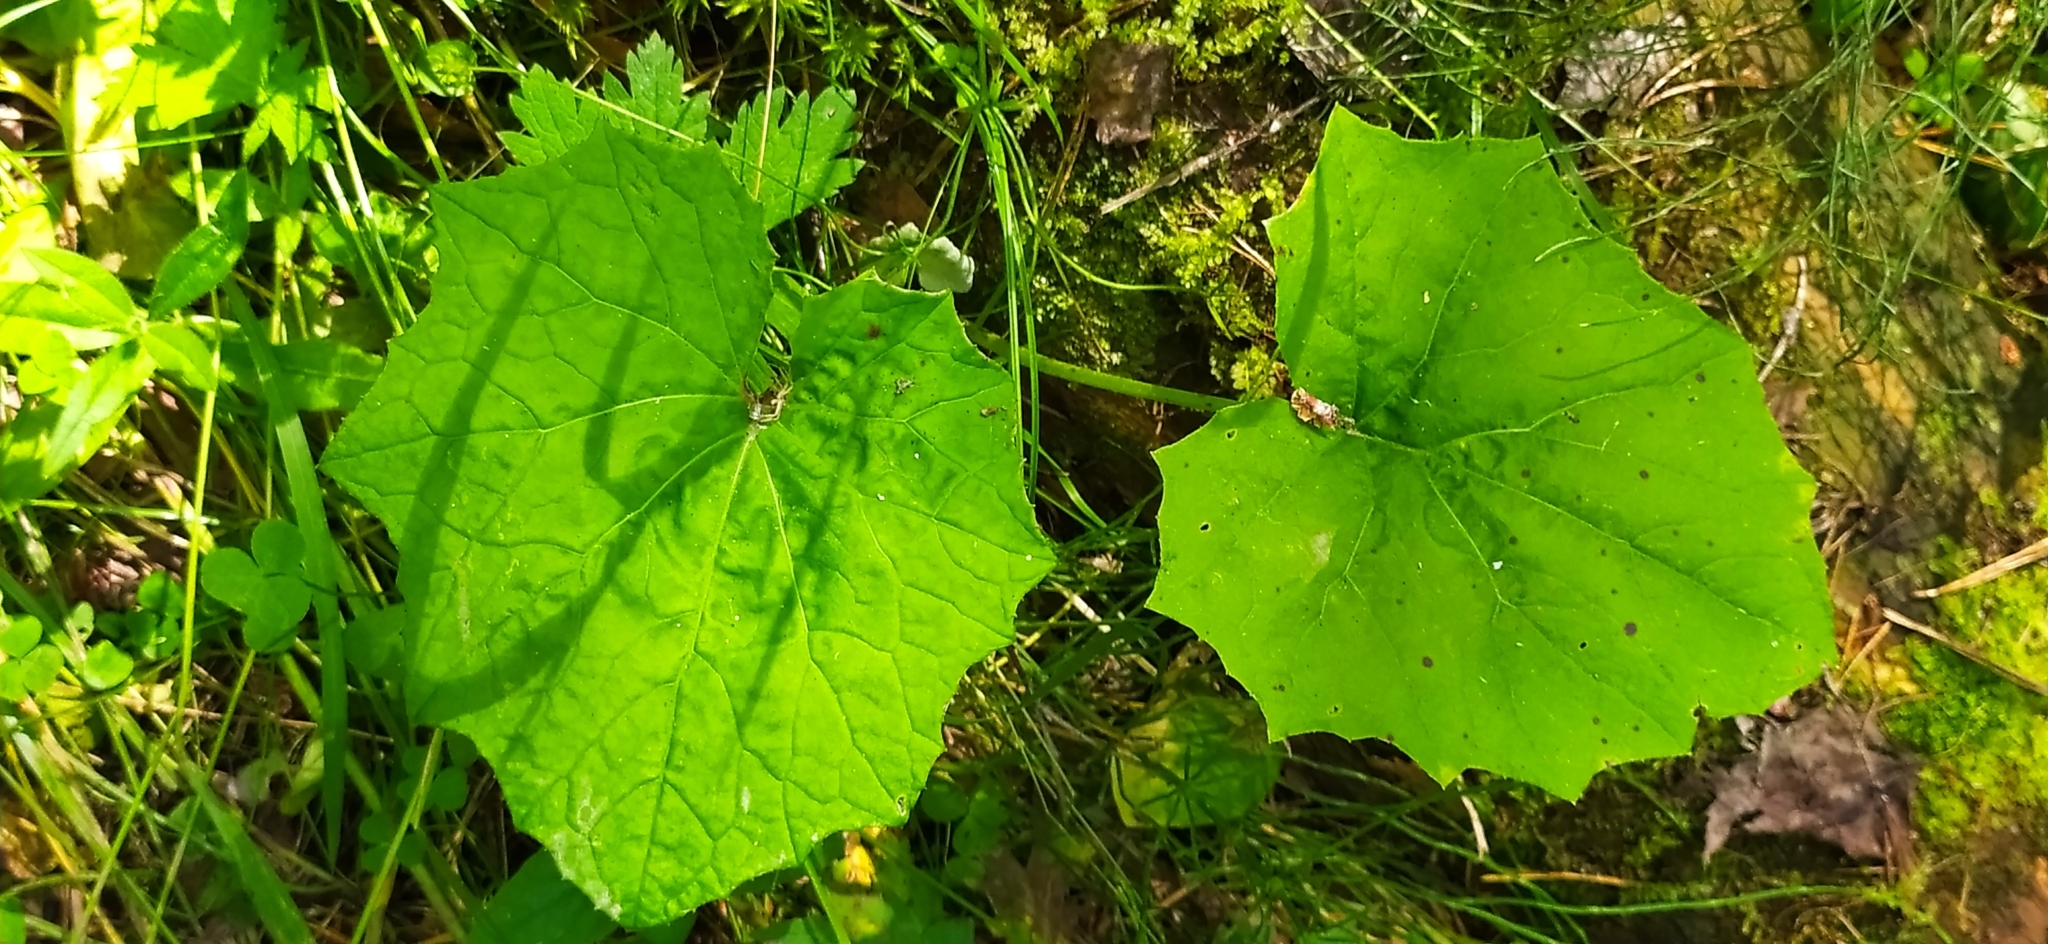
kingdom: Plantae
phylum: Tracheophyta
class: Magnoliopsida
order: Asterales
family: Asteraceae
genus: Tussilago
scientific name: Tussilago farfara
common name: Coltsfoot
